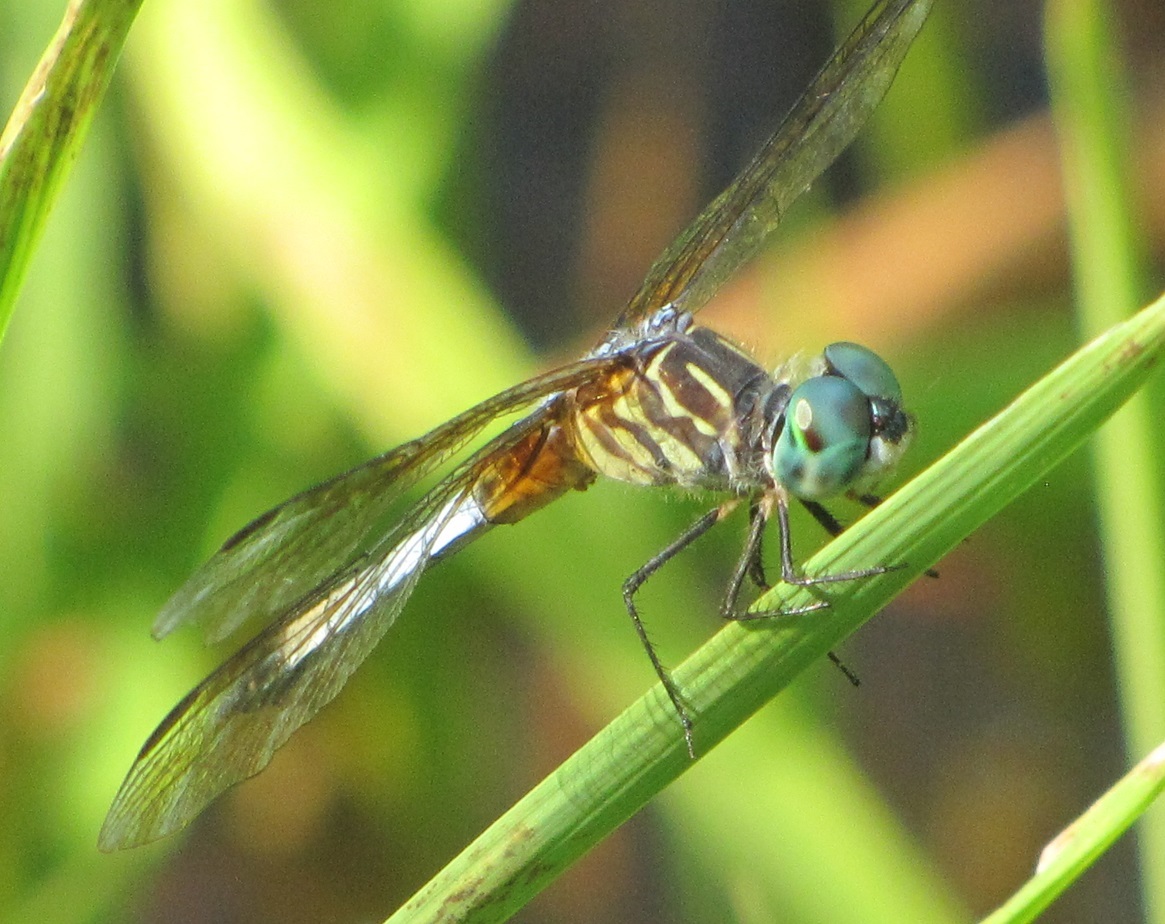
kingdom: Animalia
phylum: Arthropoda
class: Insecta
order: Odonata
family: Libellulidae
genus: Pachydiplax
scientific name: Pachydiplax longipennis
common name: Blue dasher
